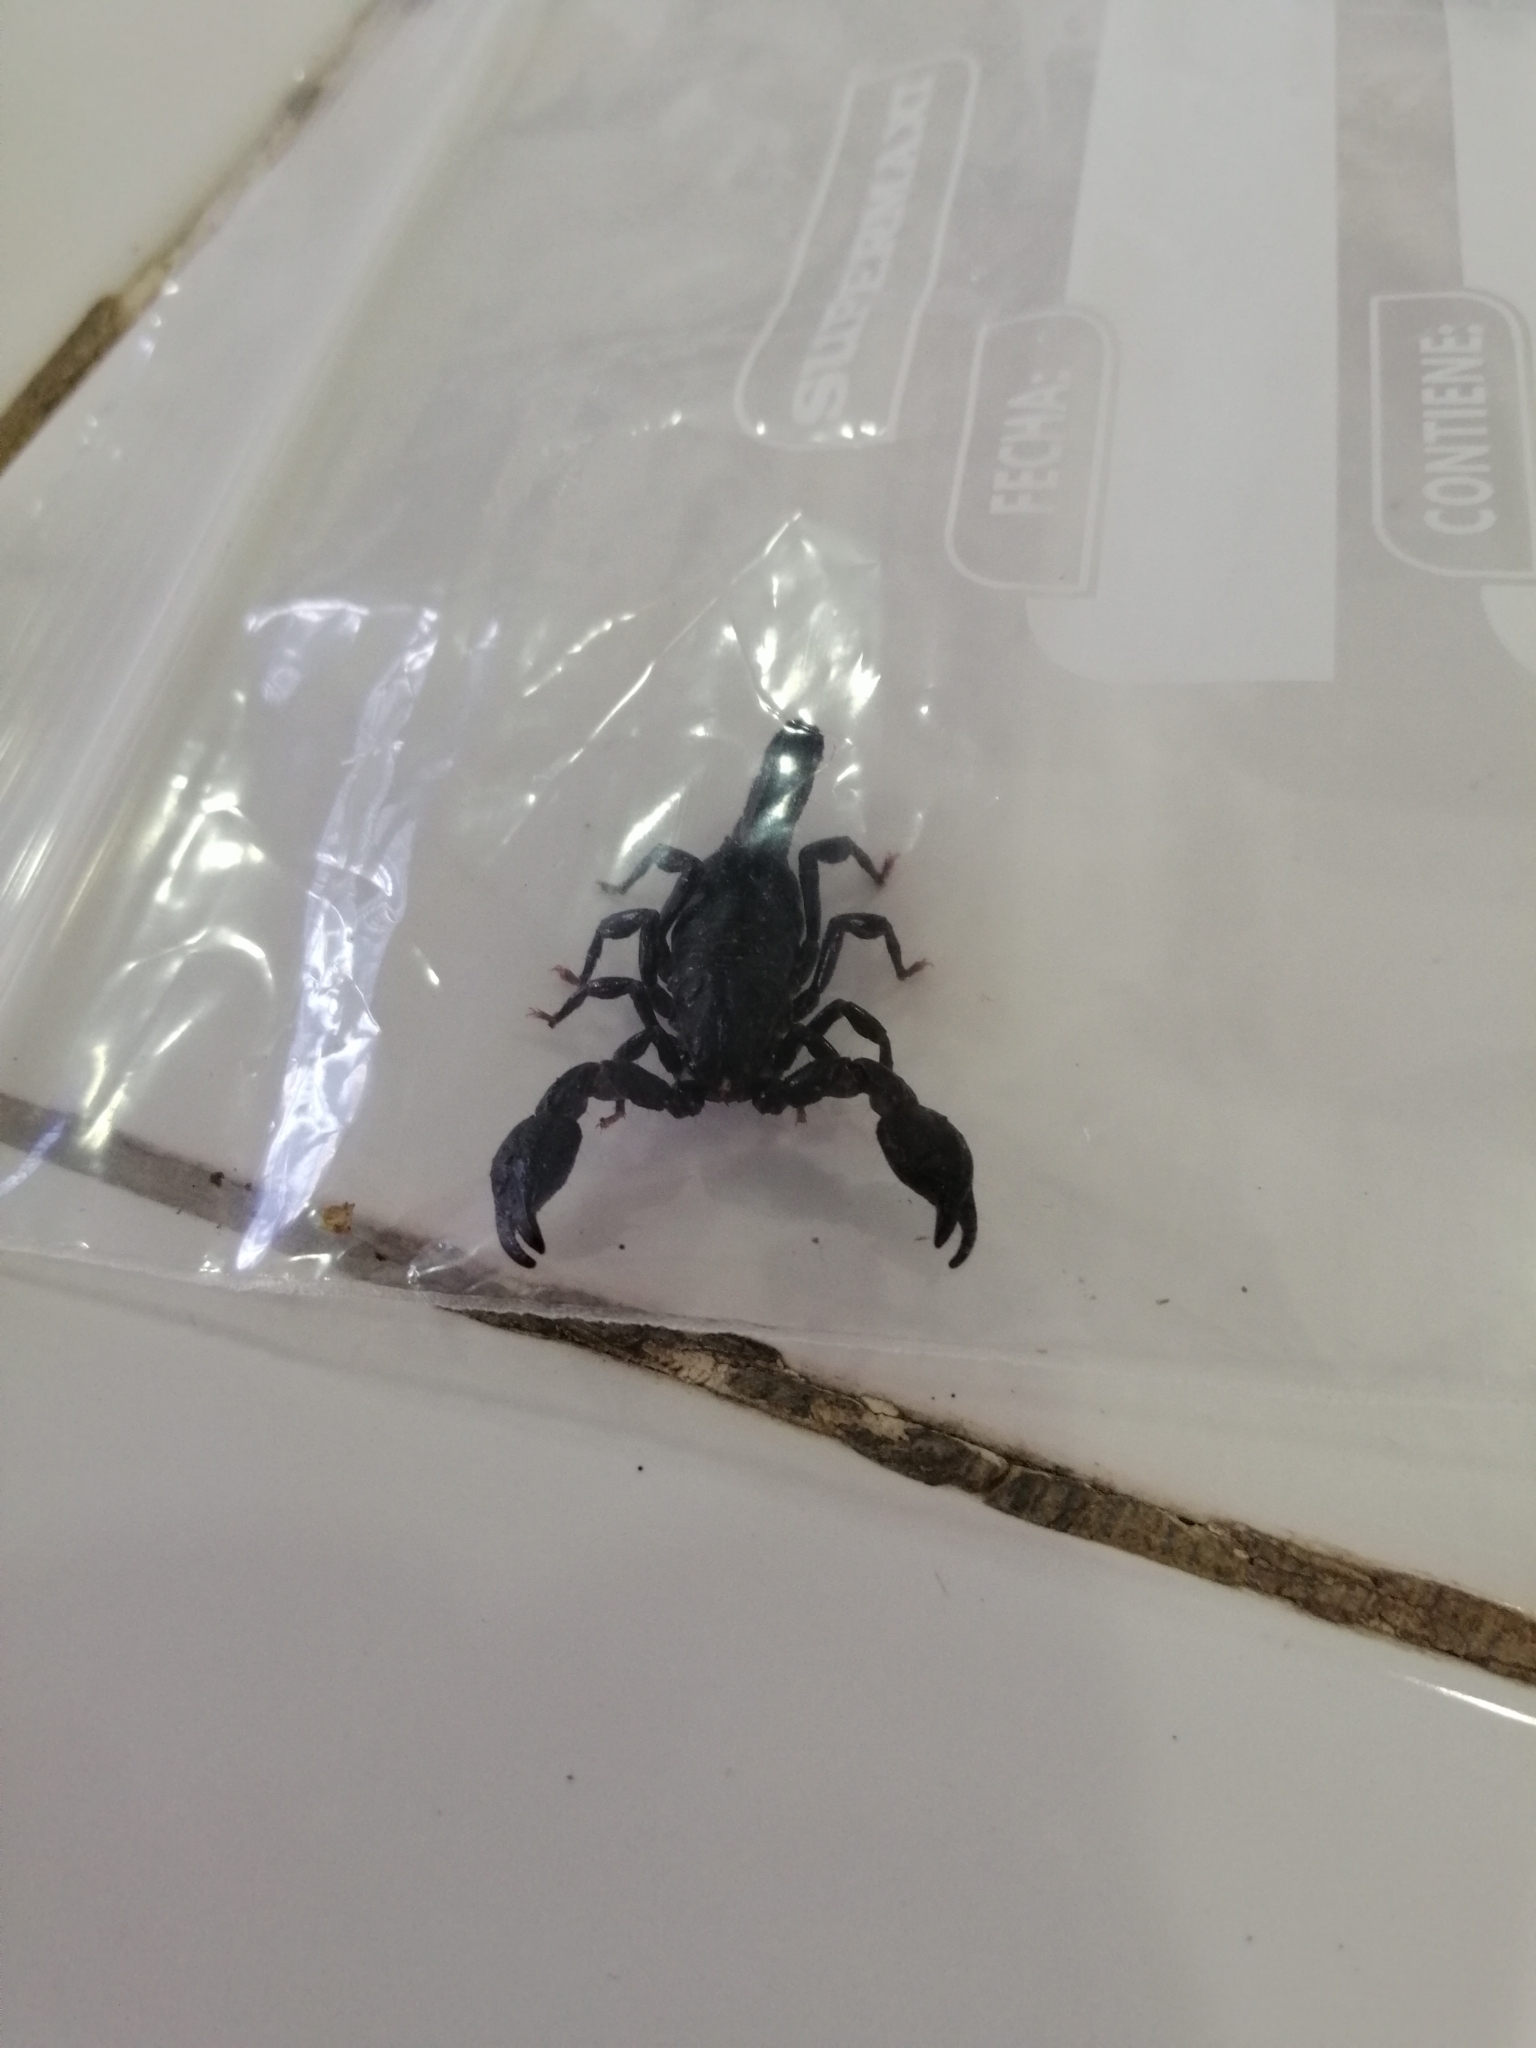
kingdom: Animalia
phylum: Arthropoda
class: Arachnida
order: Scorpiones
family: Chactidae
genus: Teuthraustes
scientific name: Teuthraustes atramentarius
